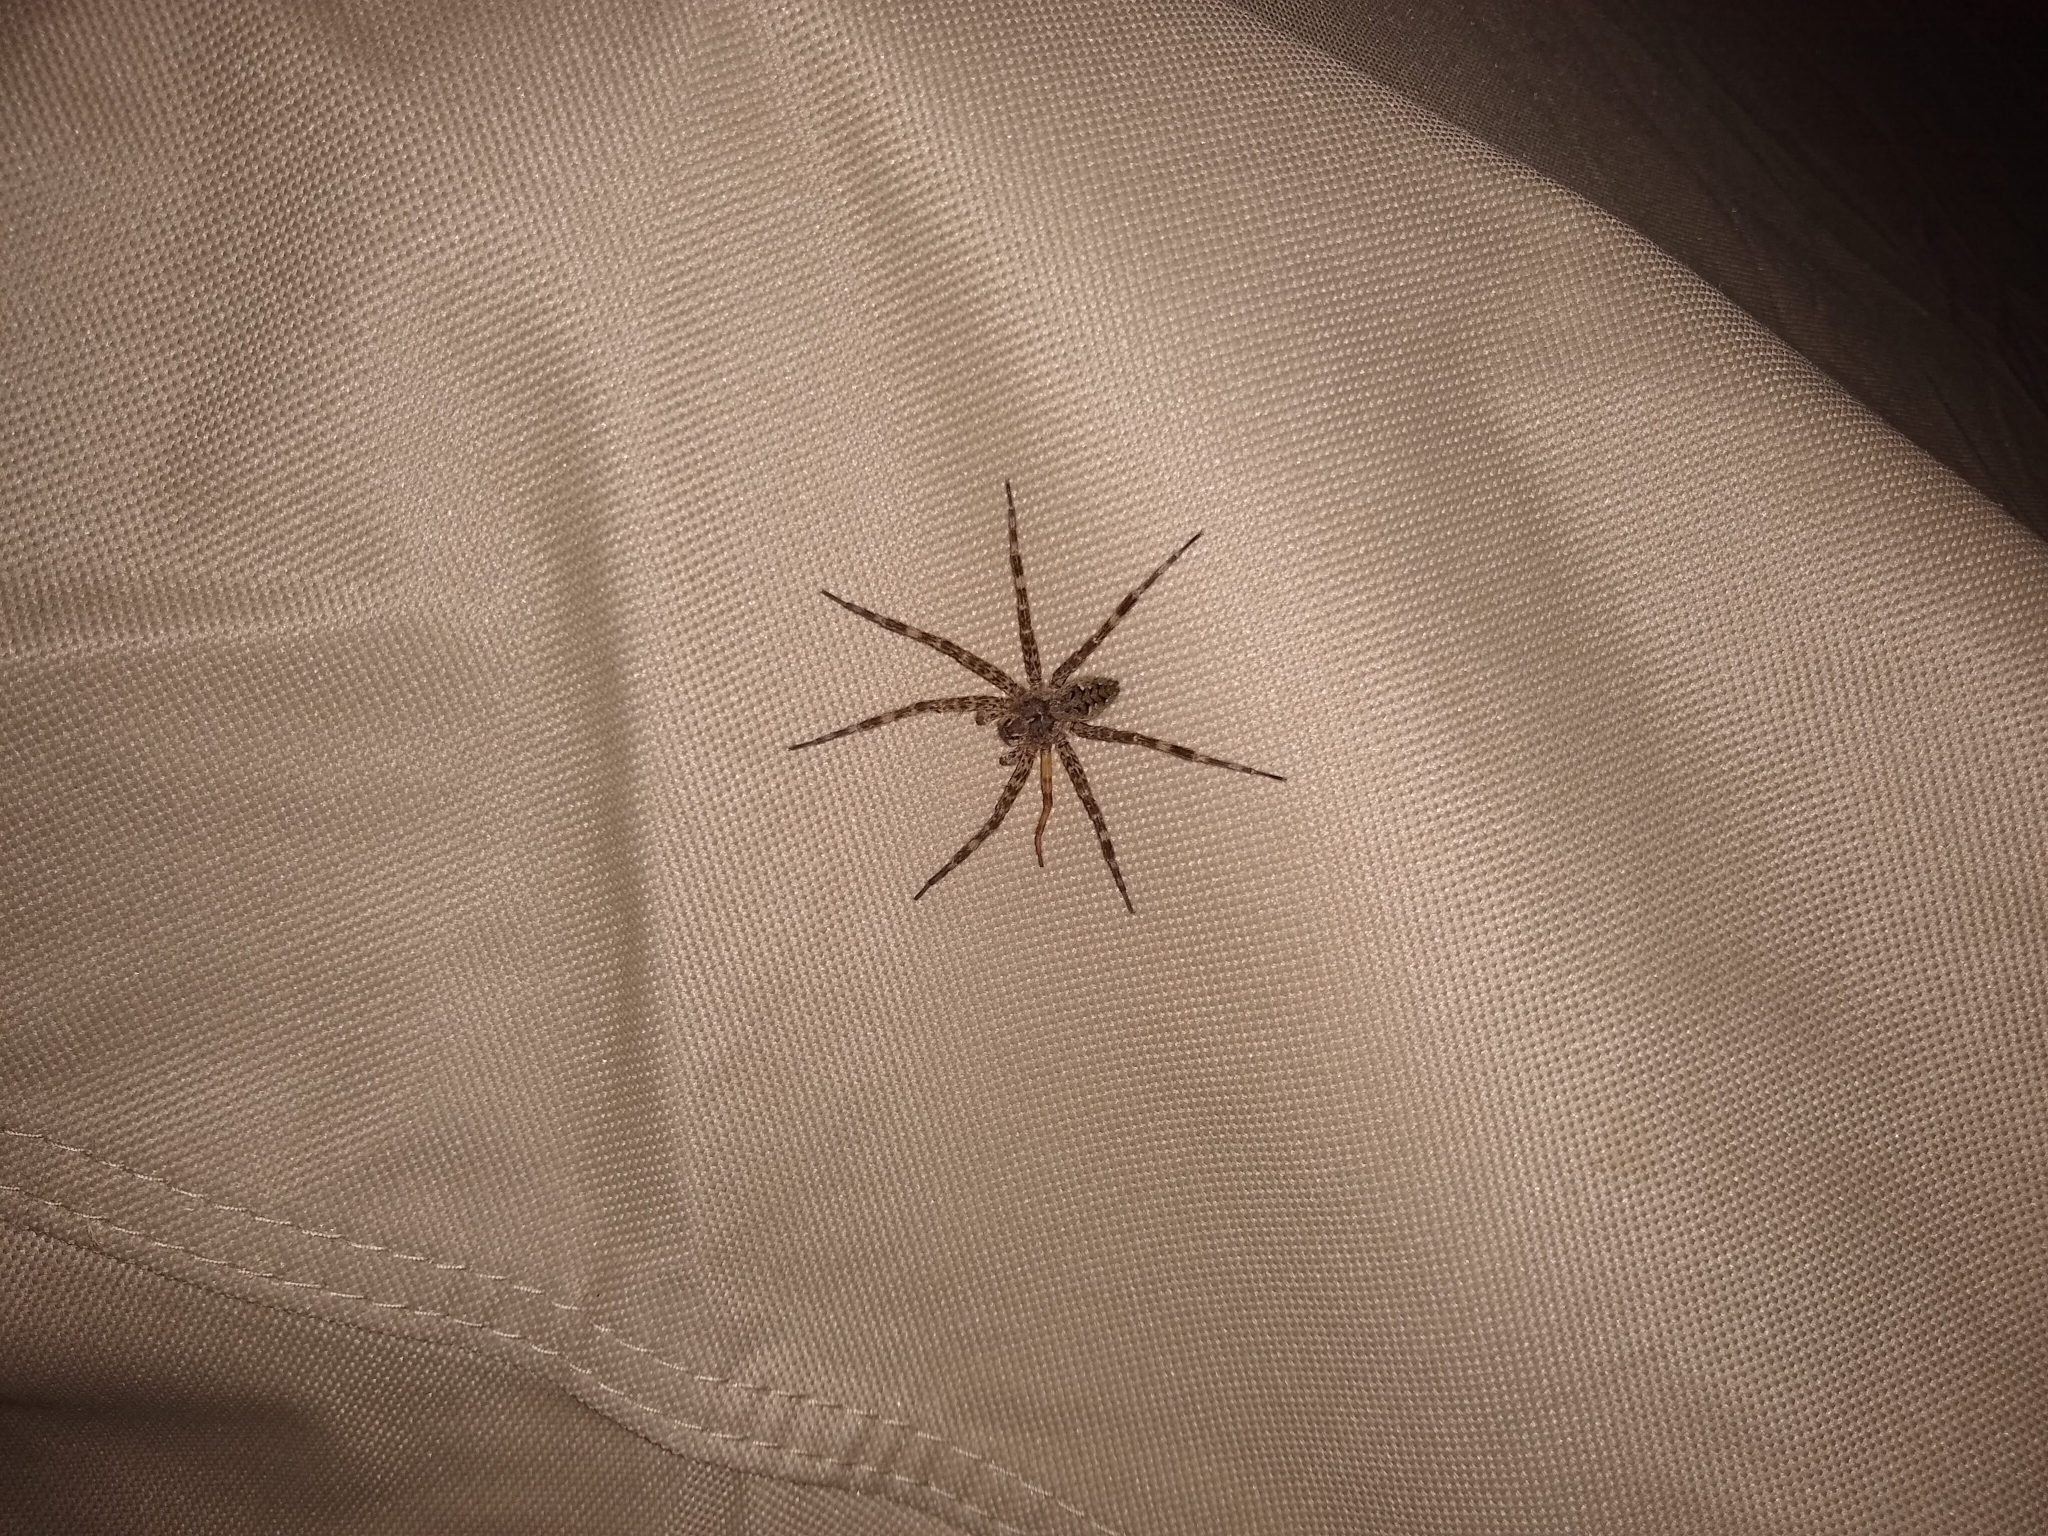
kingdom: Animalia
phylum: Arthropoda
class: Arachnida
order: Araneae
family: Pisauridae
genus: Dolomedes
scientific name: Dolomedes tenebrosus
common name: Dark fishing spider
